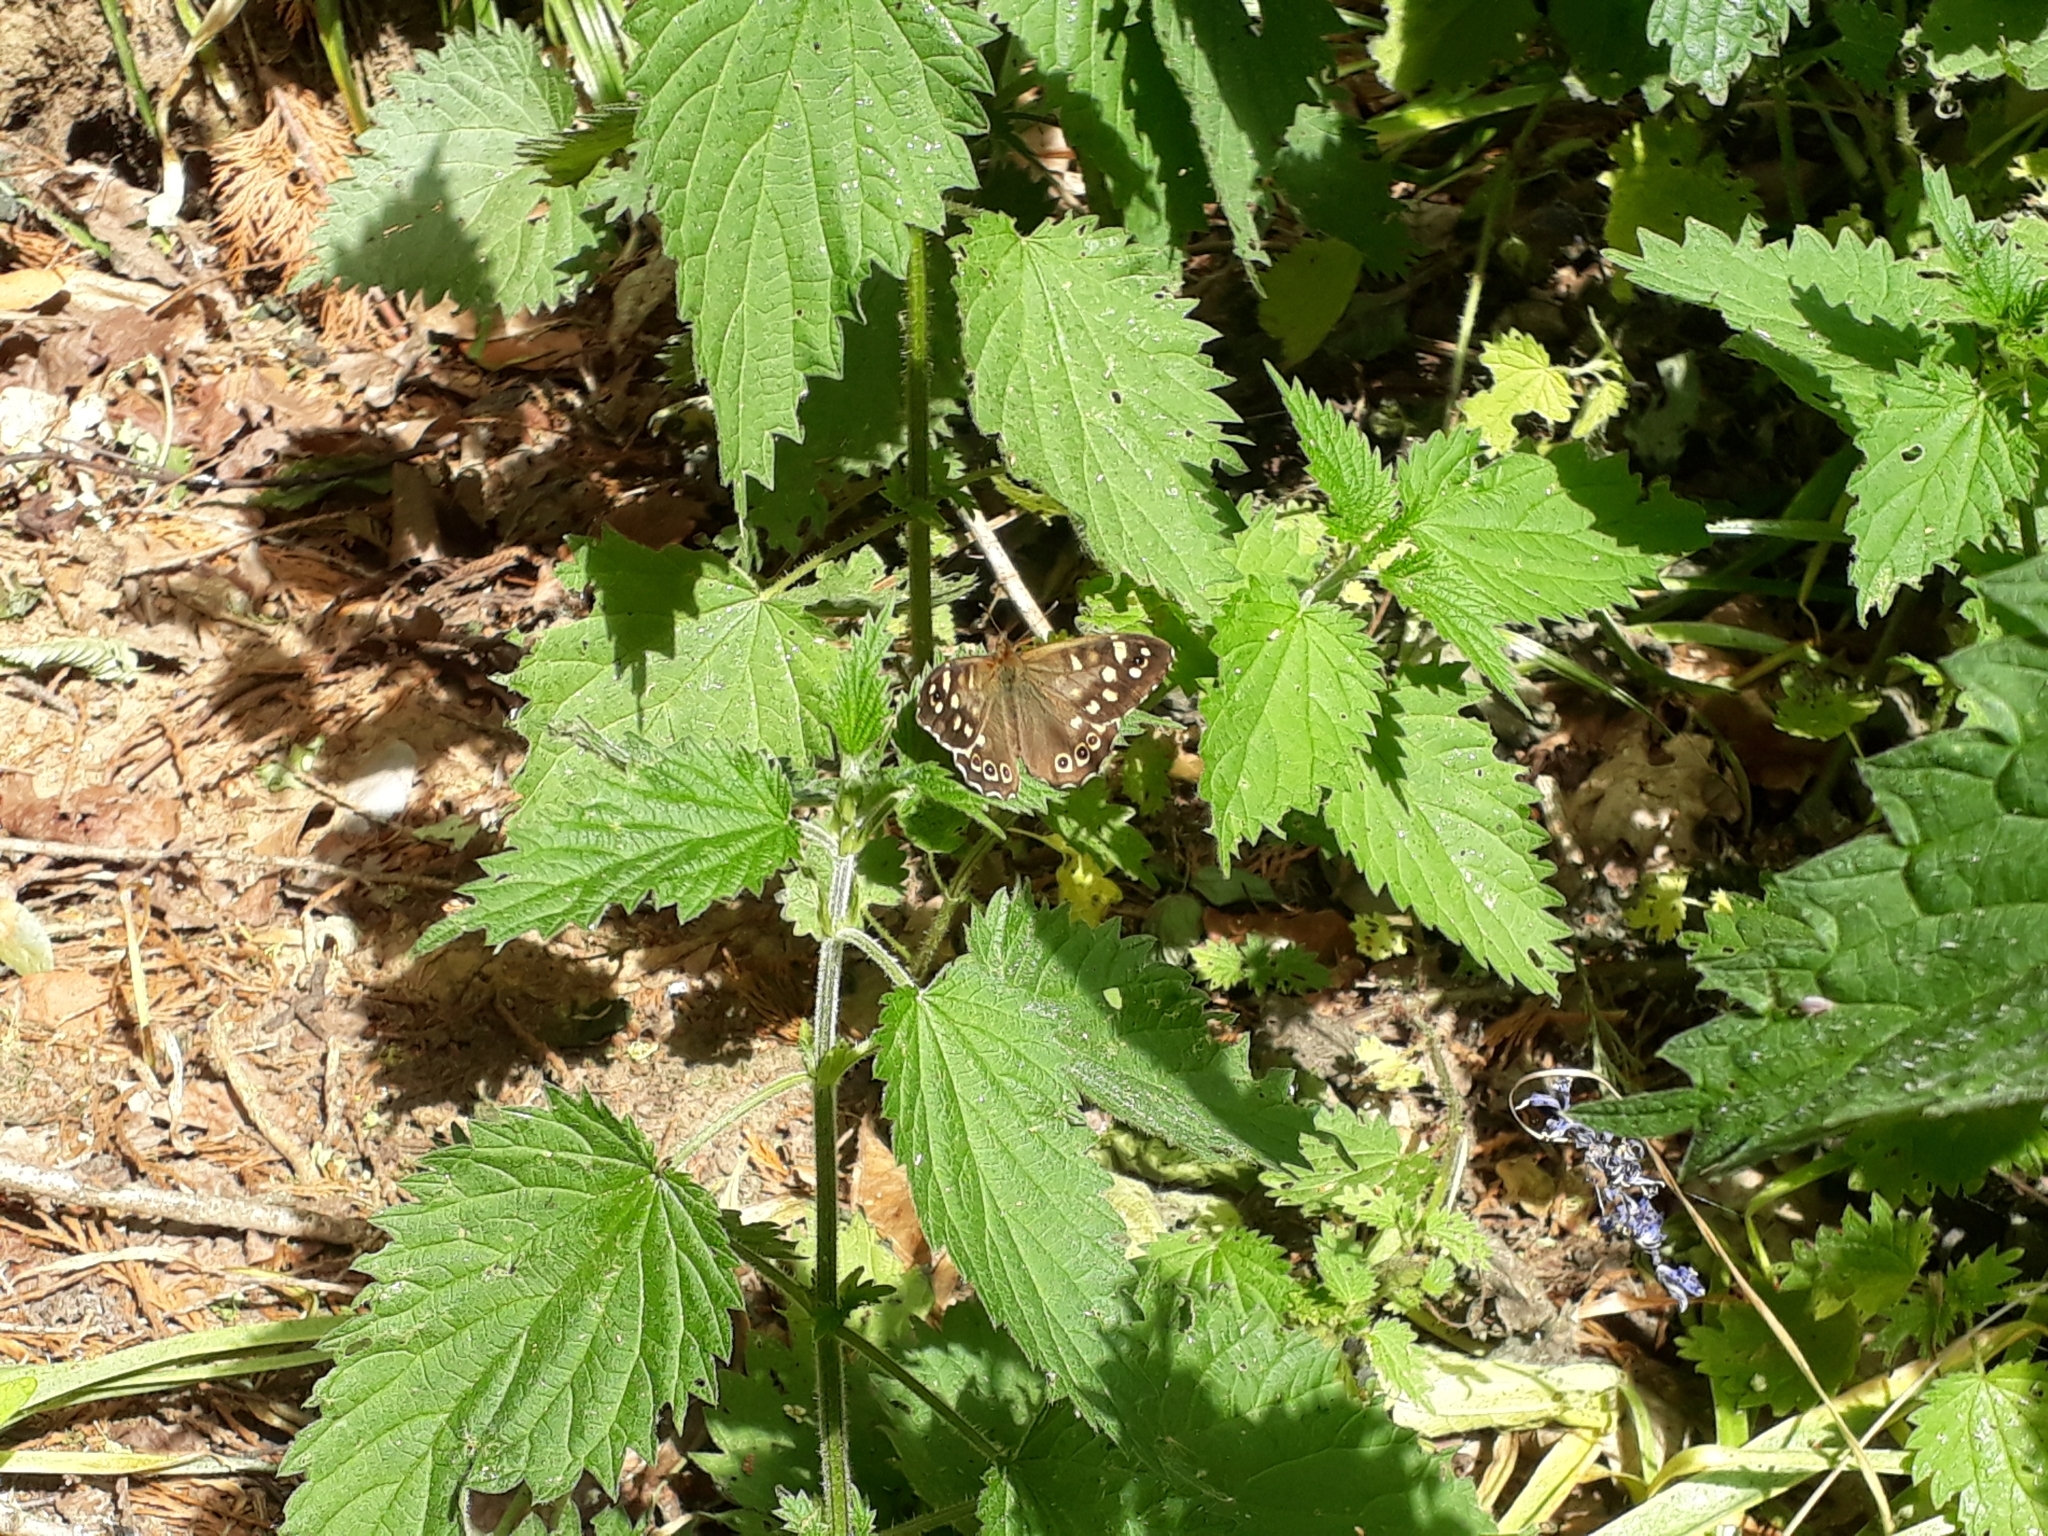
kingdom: Animalia
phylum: Arthropoda
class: Insecta
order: Lepidoptera
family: Nymphalidae
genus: Pararge
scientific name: Pararge aegeria
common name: Speckled wood
